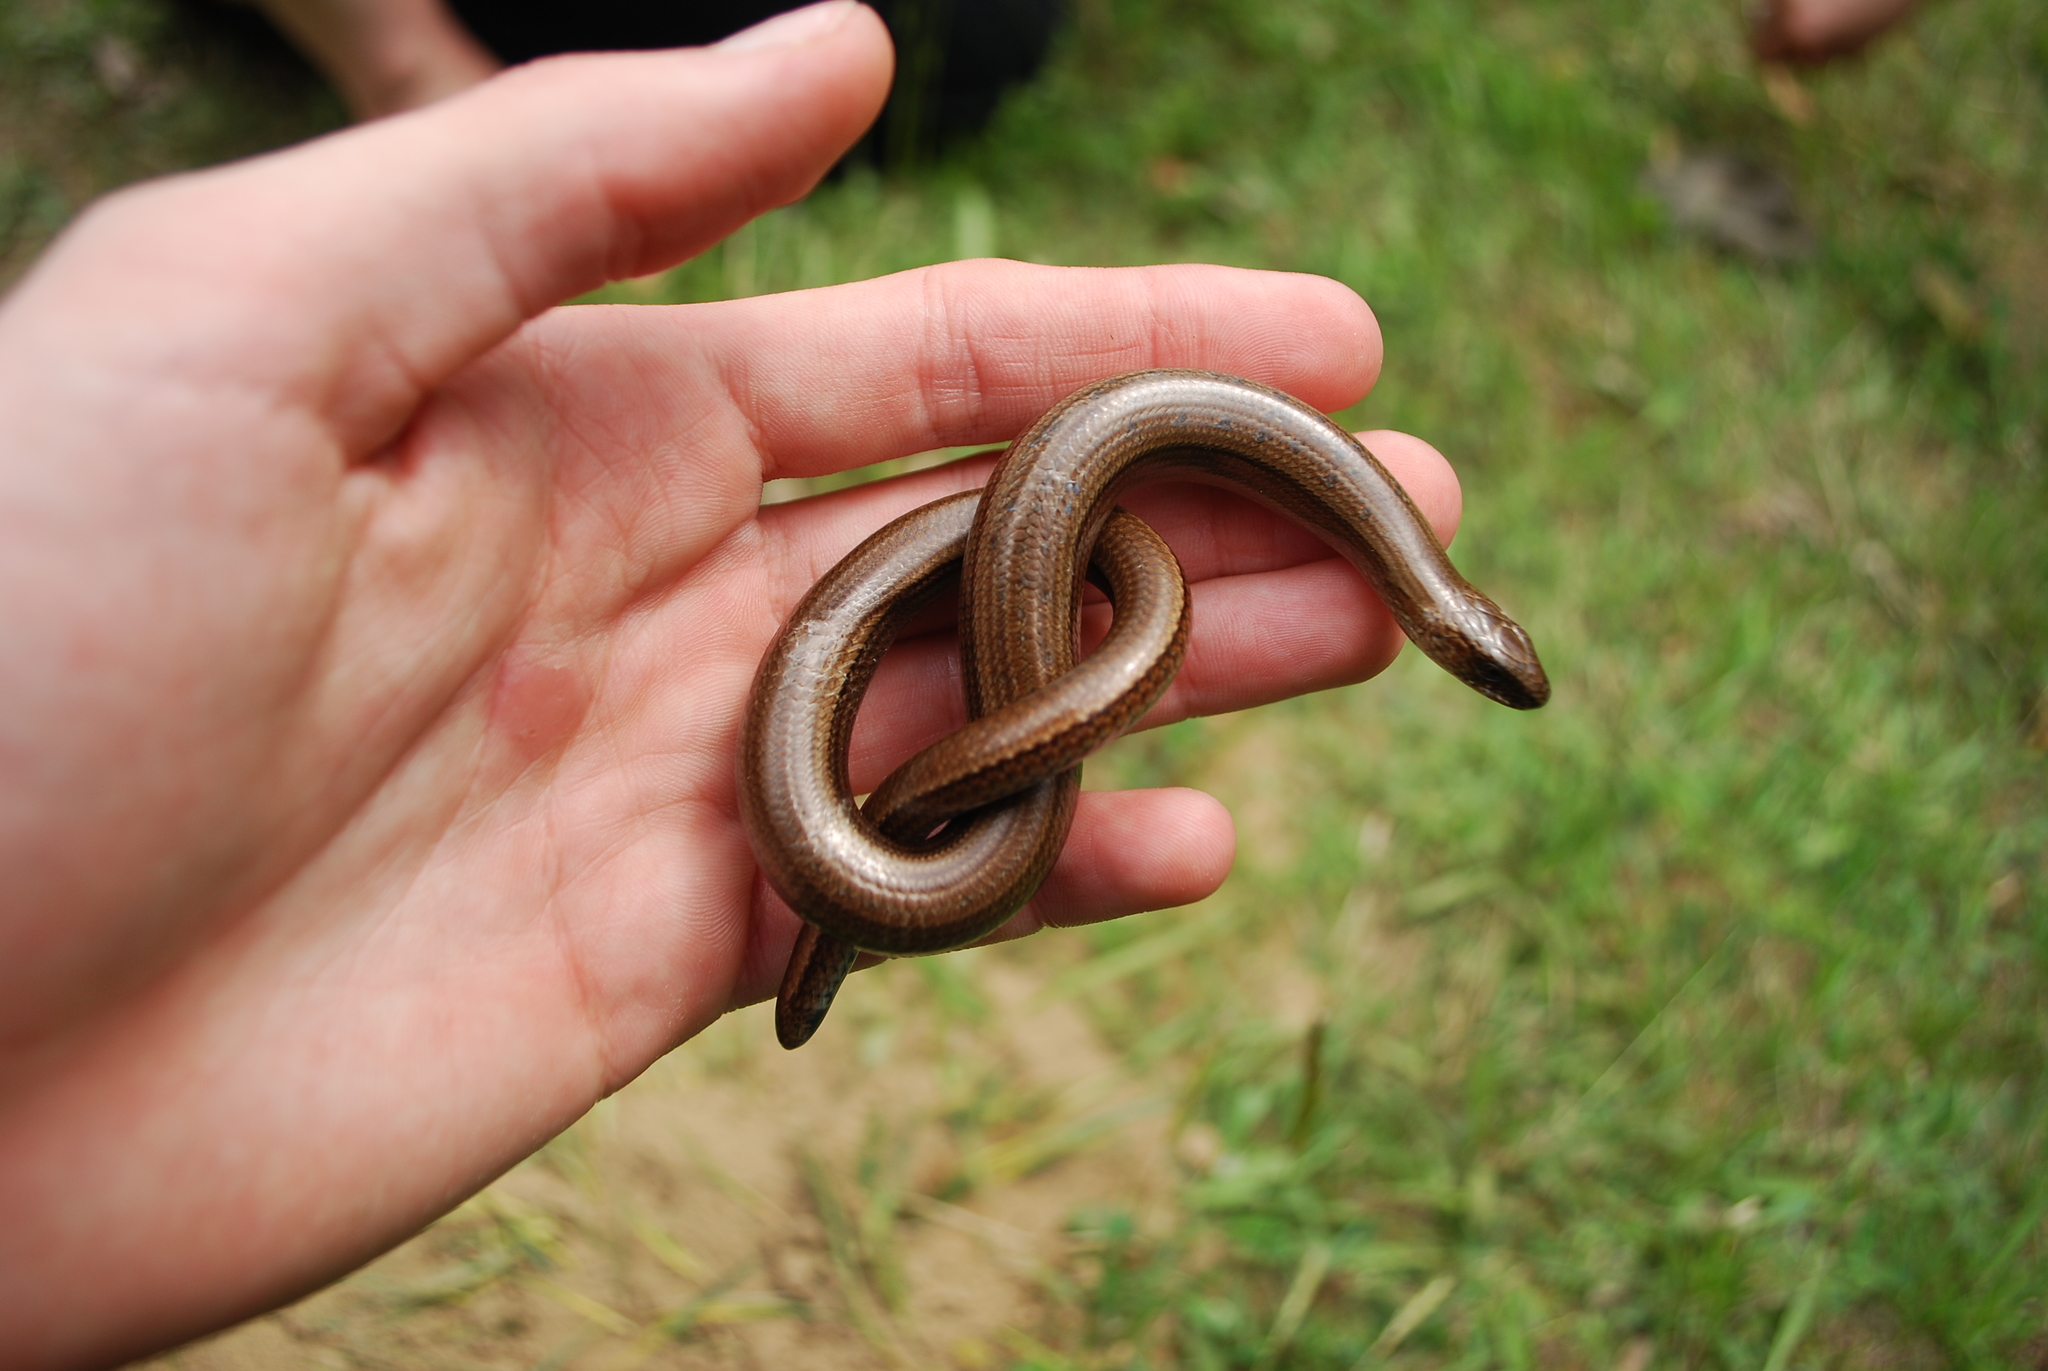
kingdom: Animalia
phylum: Chordata
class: Squamata
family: Anguidae
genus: Anguis
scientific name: Anguis colchica
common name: Slow worm
